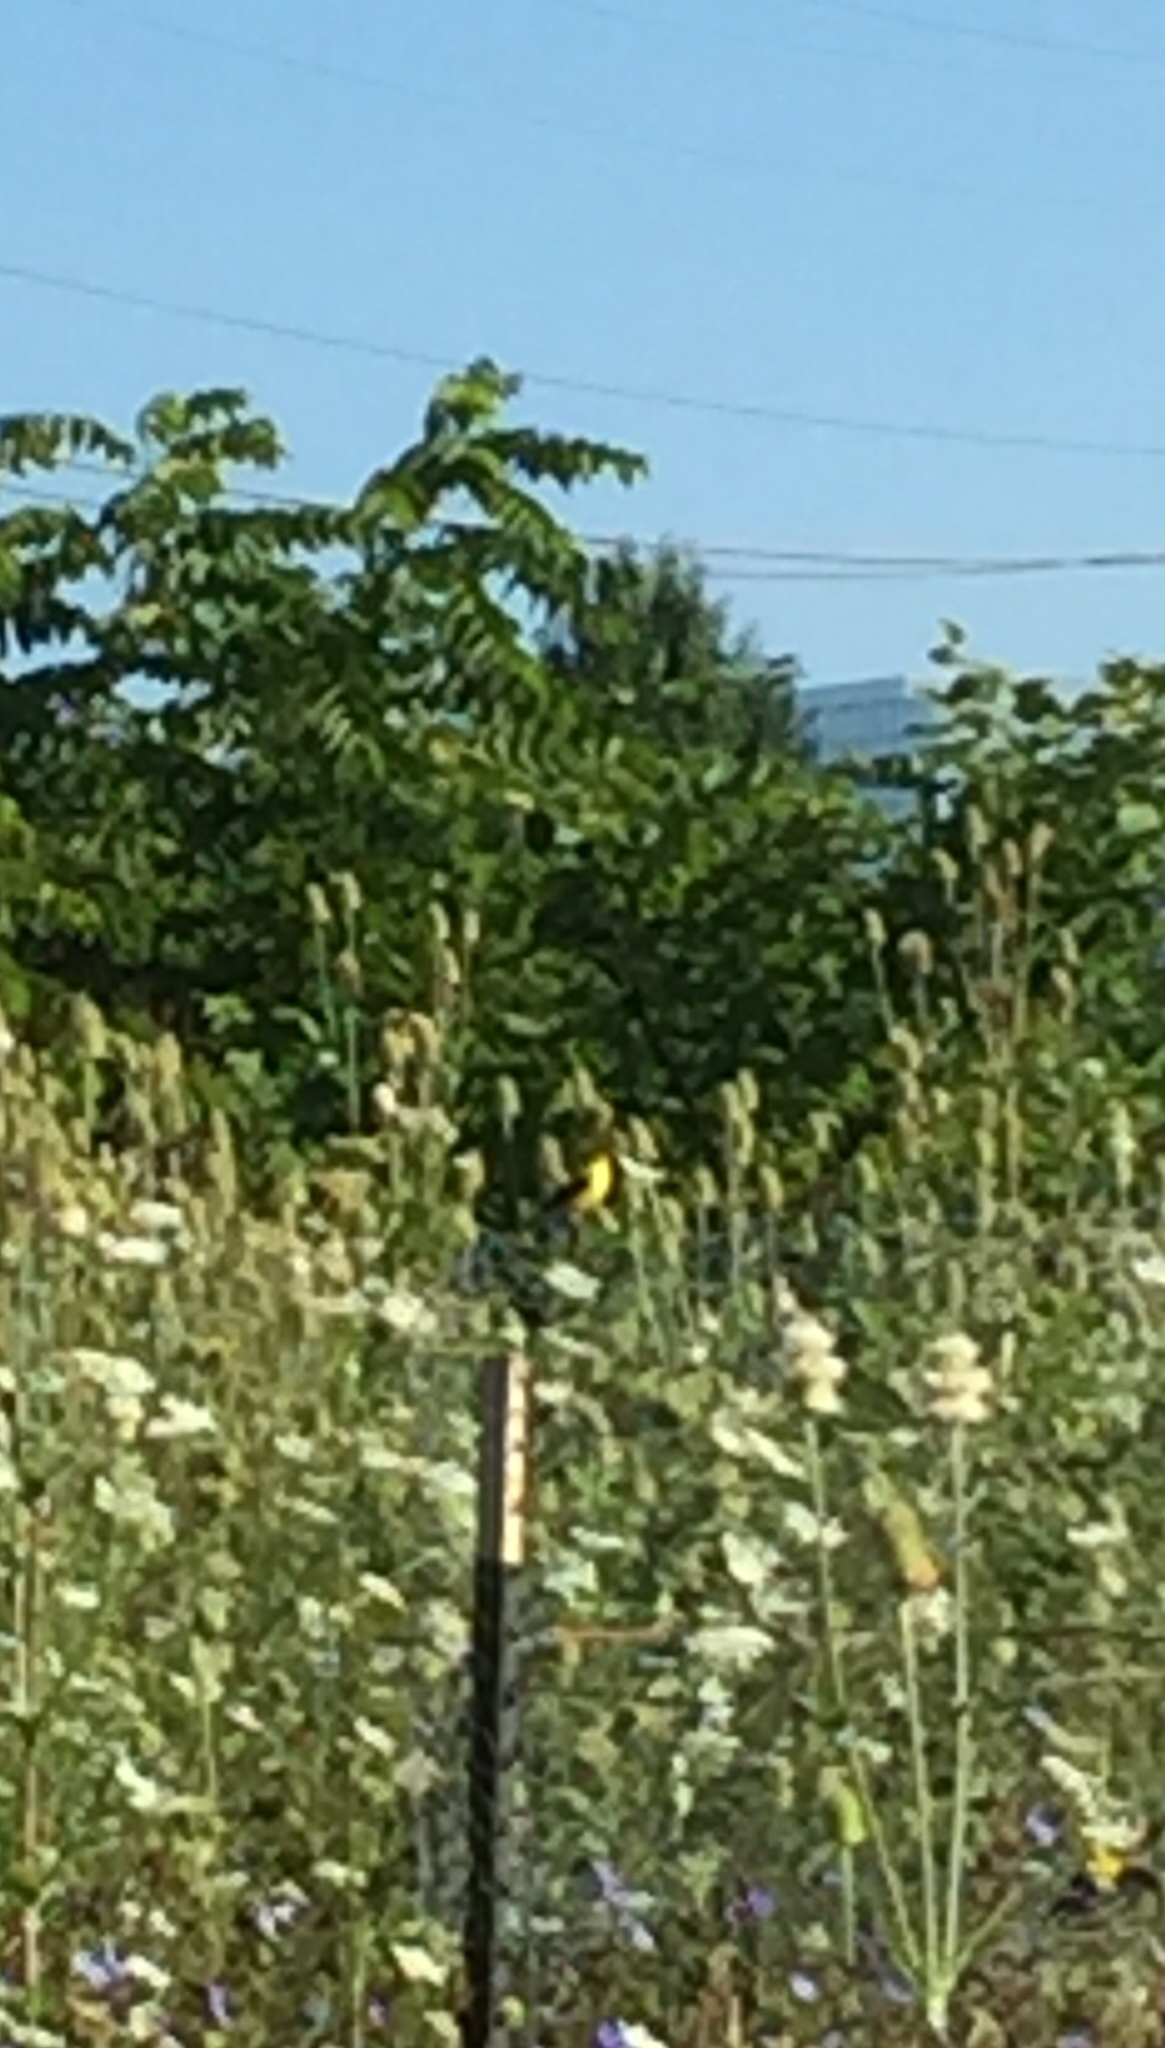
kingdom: Animalia
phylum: Chordata
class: Aves
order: Passeriformes
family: Fringillidae
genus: Spinus
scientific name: Spinus tristis
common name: American goldfinch
